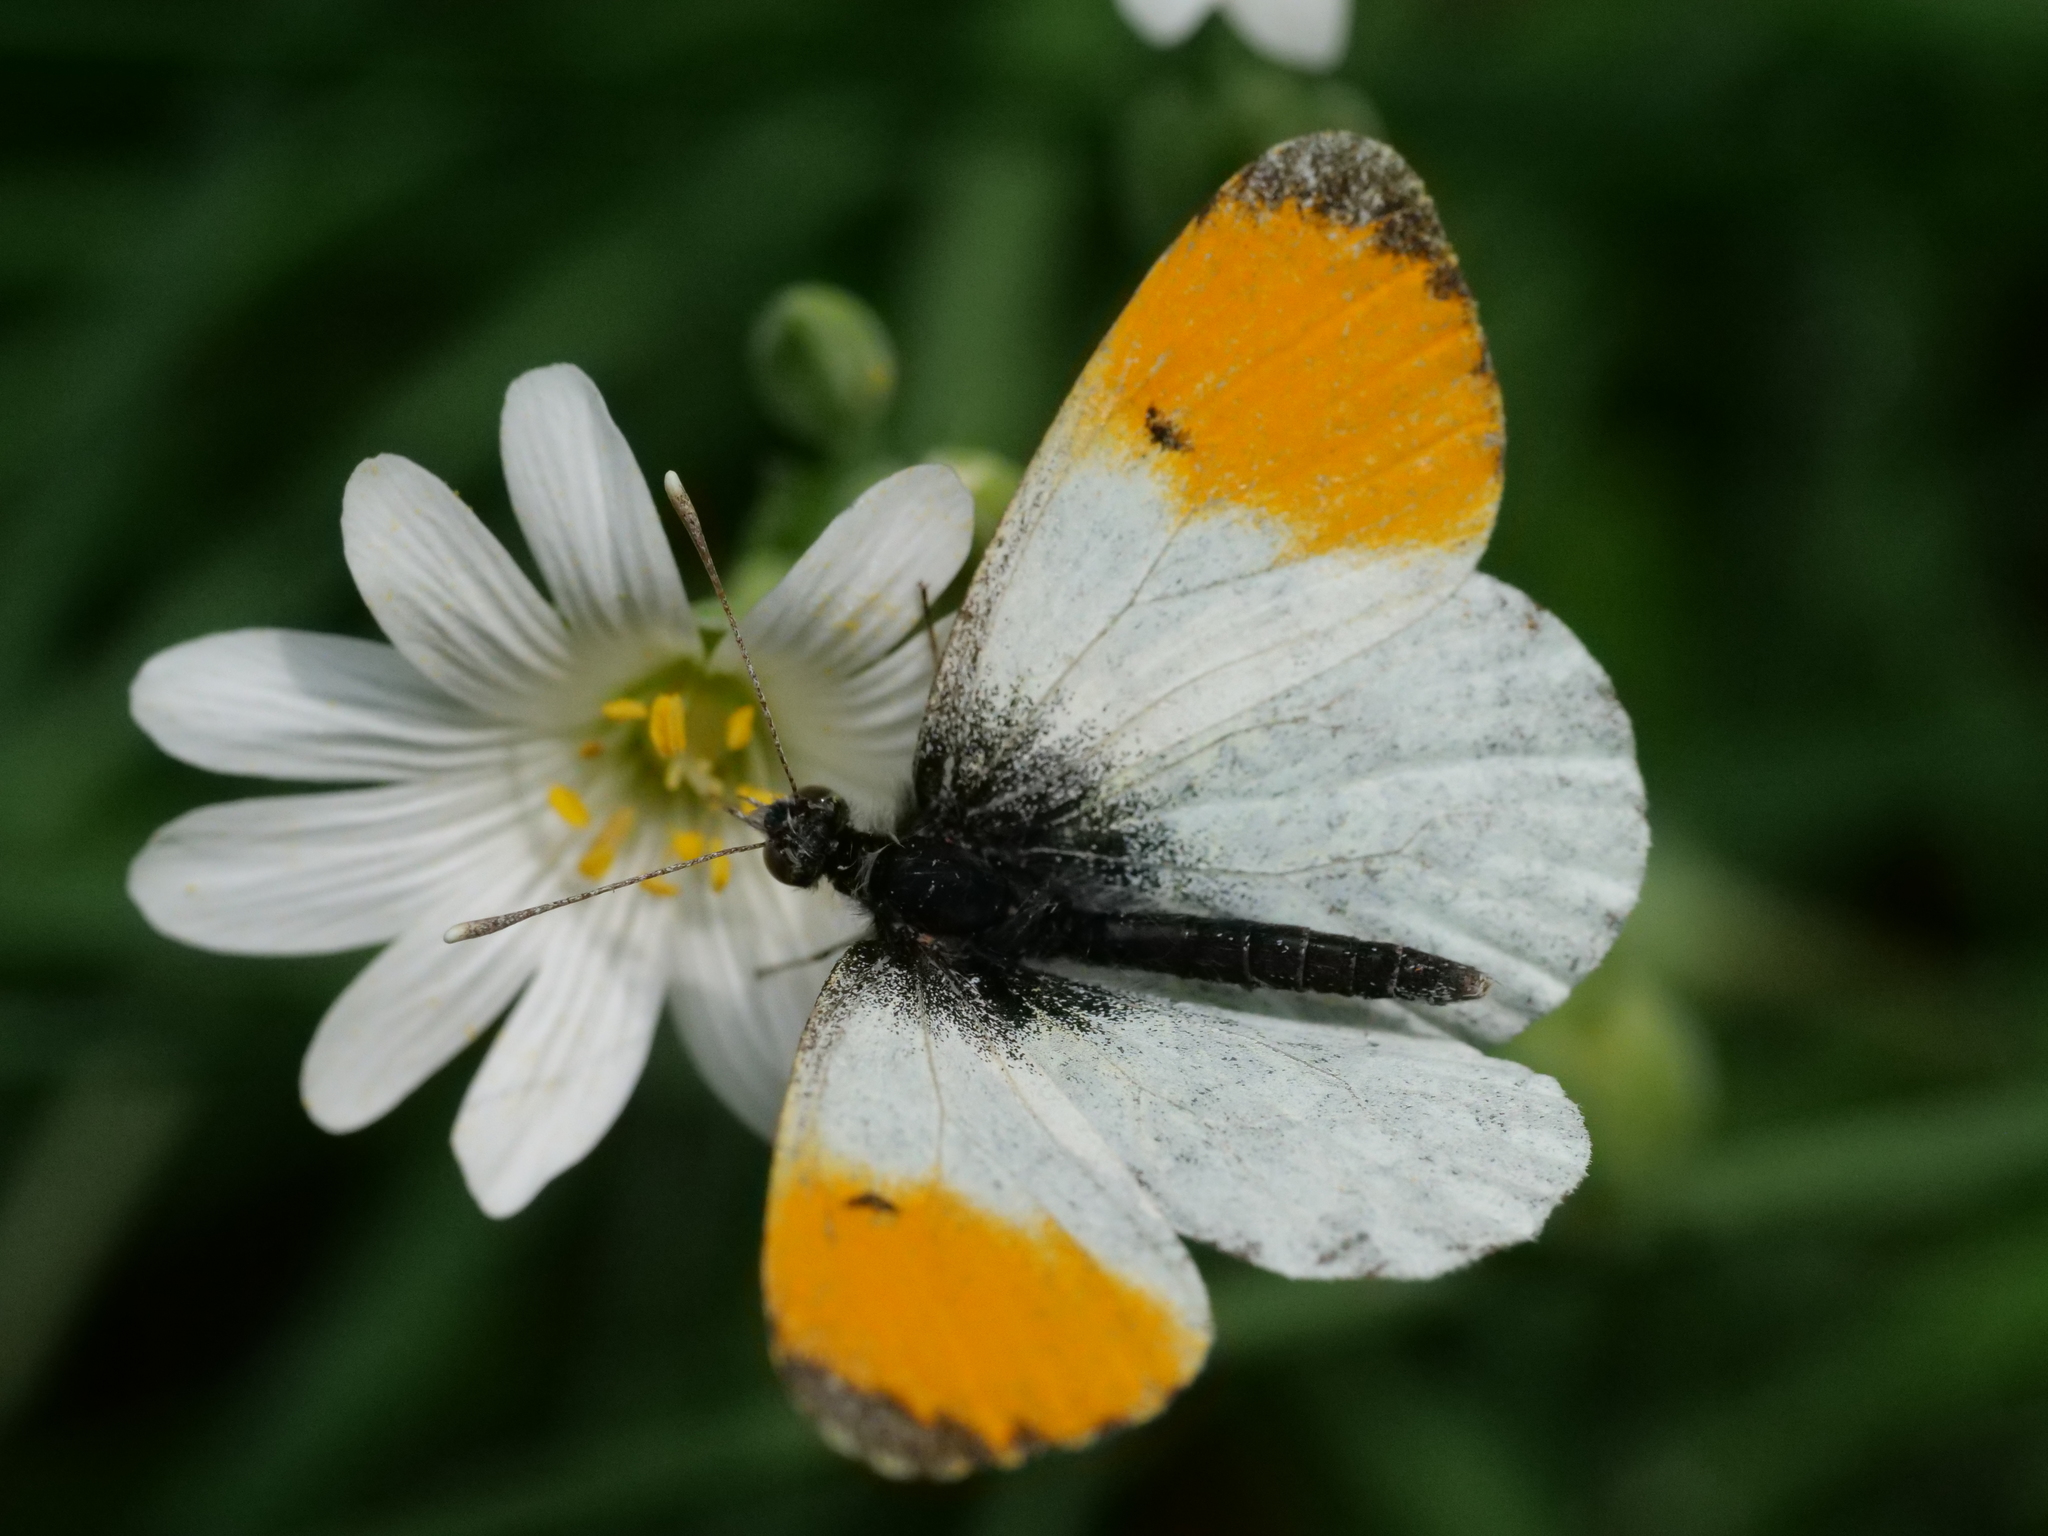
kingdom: Animalia
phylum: Arthropoda
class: Insecta
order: Lepidoptera
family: Pieridae
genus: Anthocharis
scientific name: Anthocharis cardamines
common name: Orange-tip
